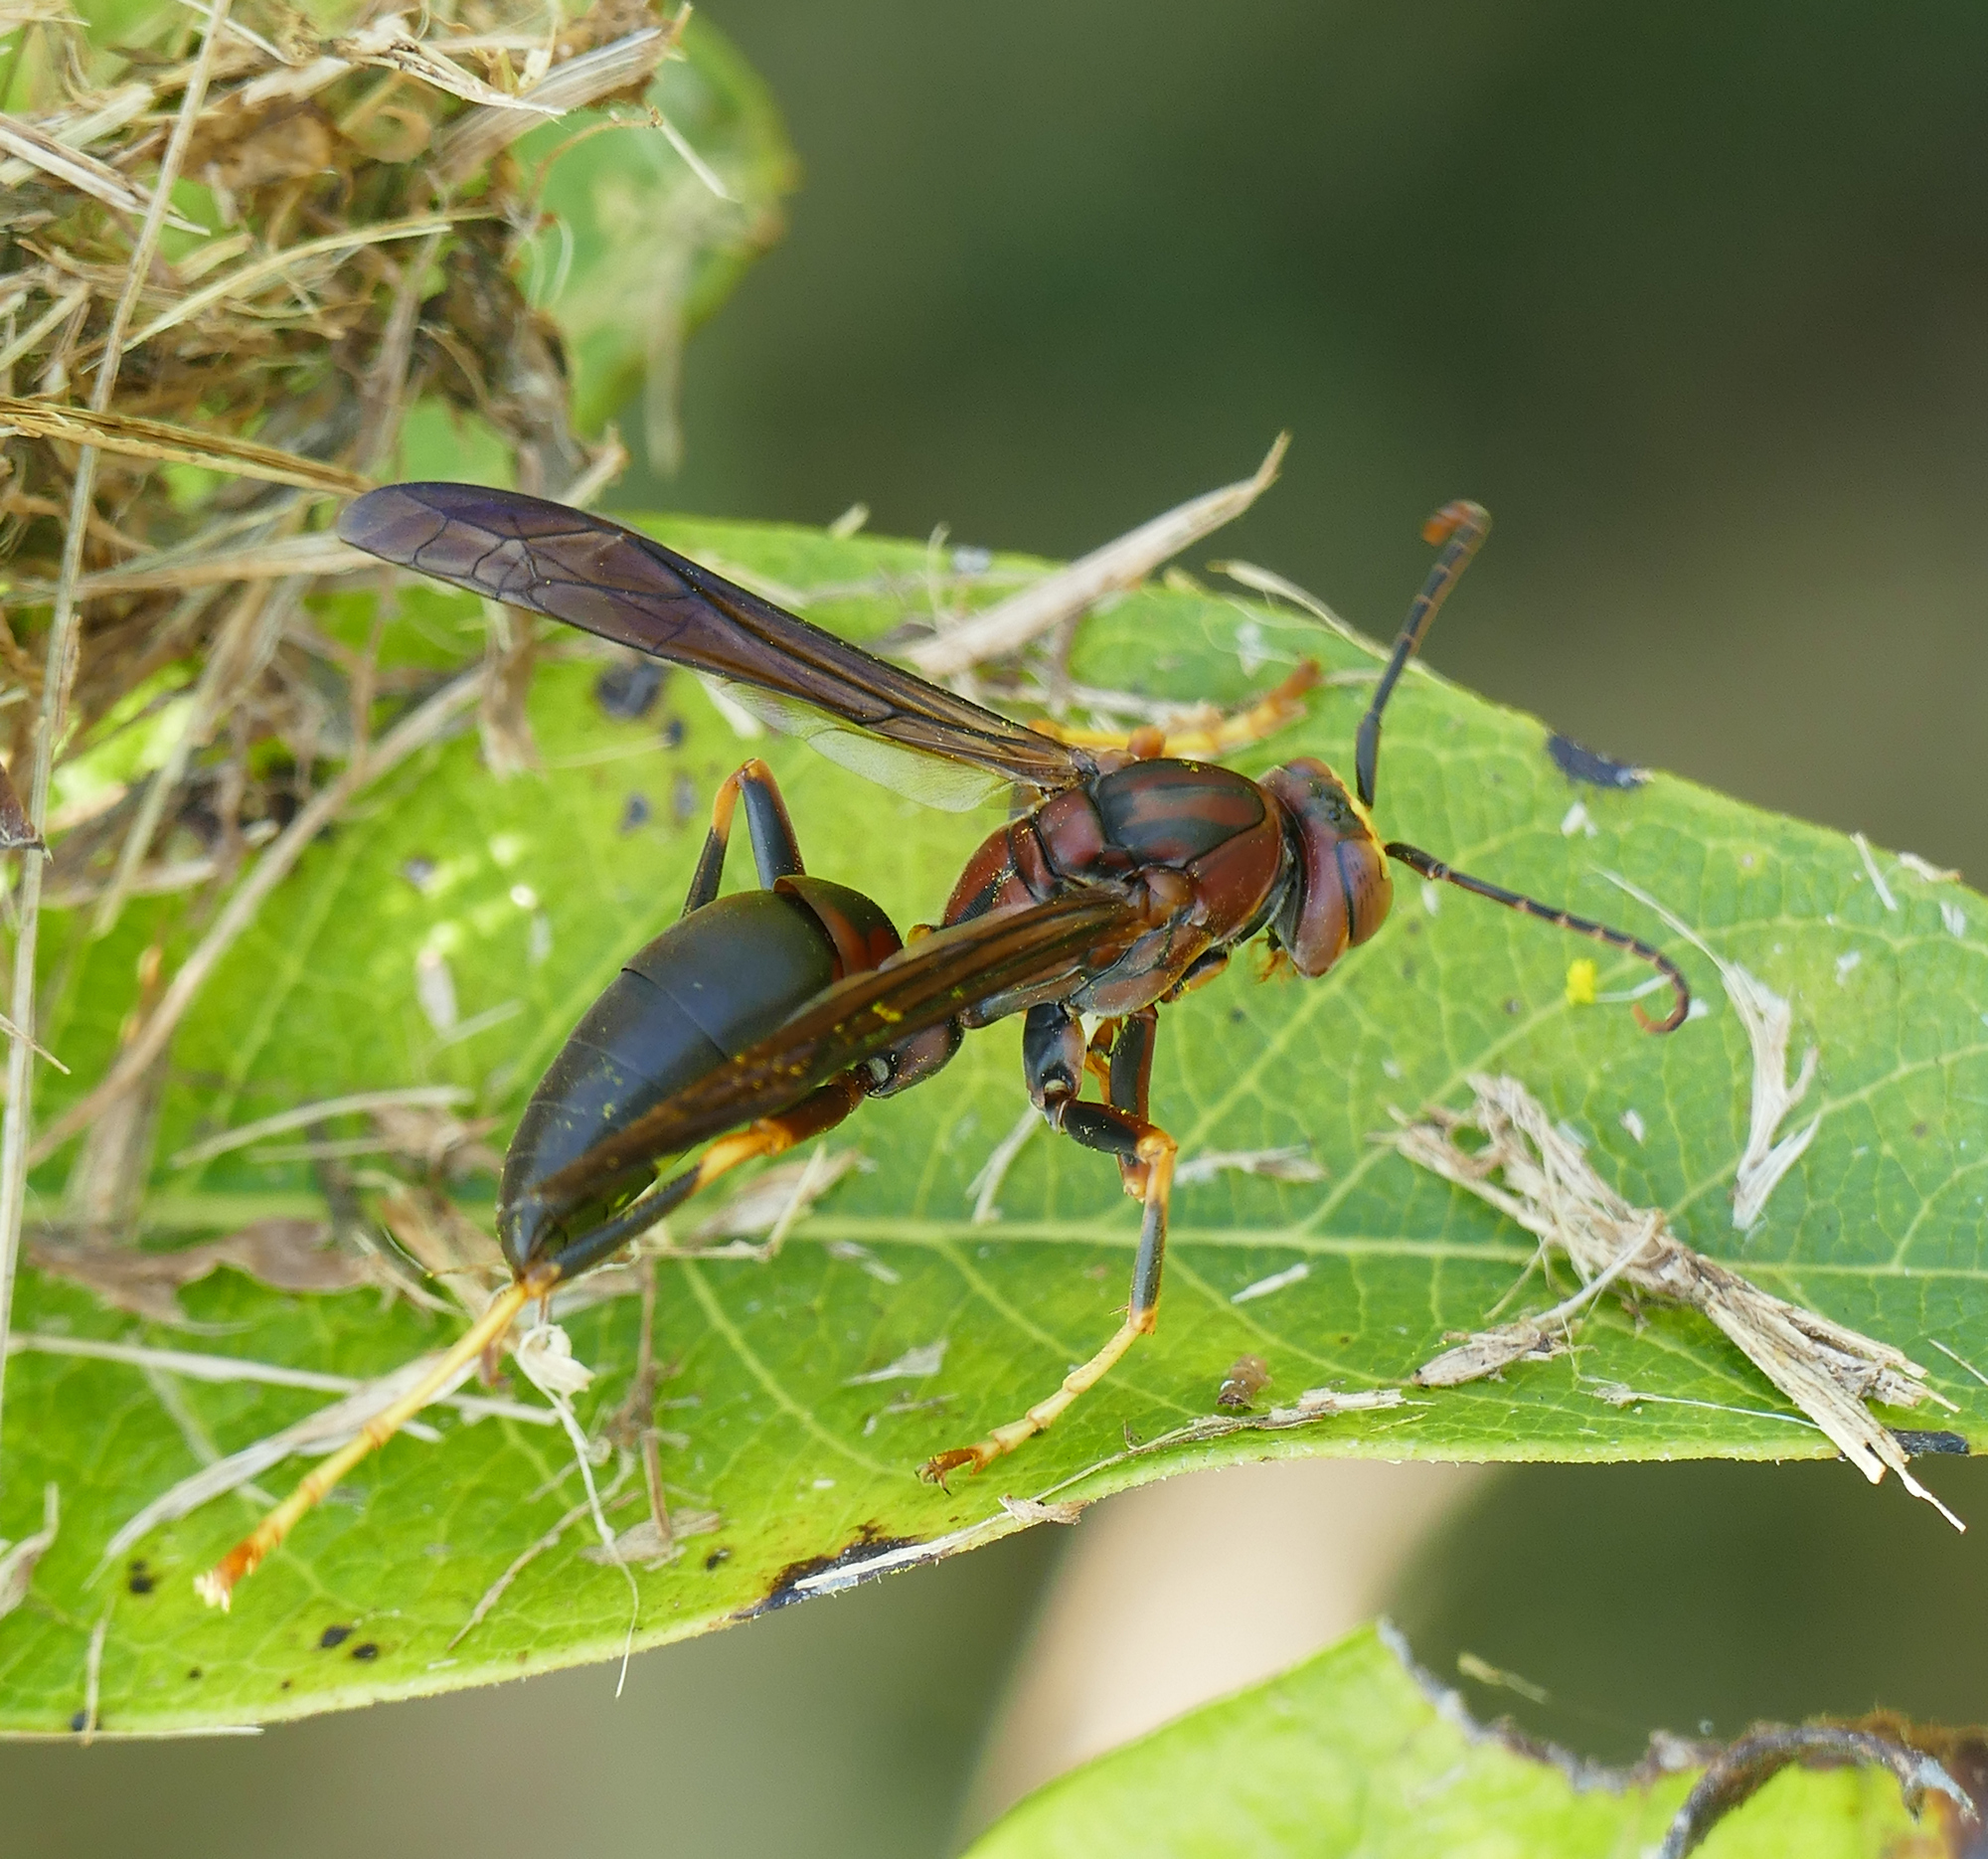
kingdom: Animalia
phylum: Arthropoda
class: Insecta
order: Hymenoptera
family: Eumenidae
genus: Polistes
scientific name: Polistes metricus
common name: Metric paper wasp
